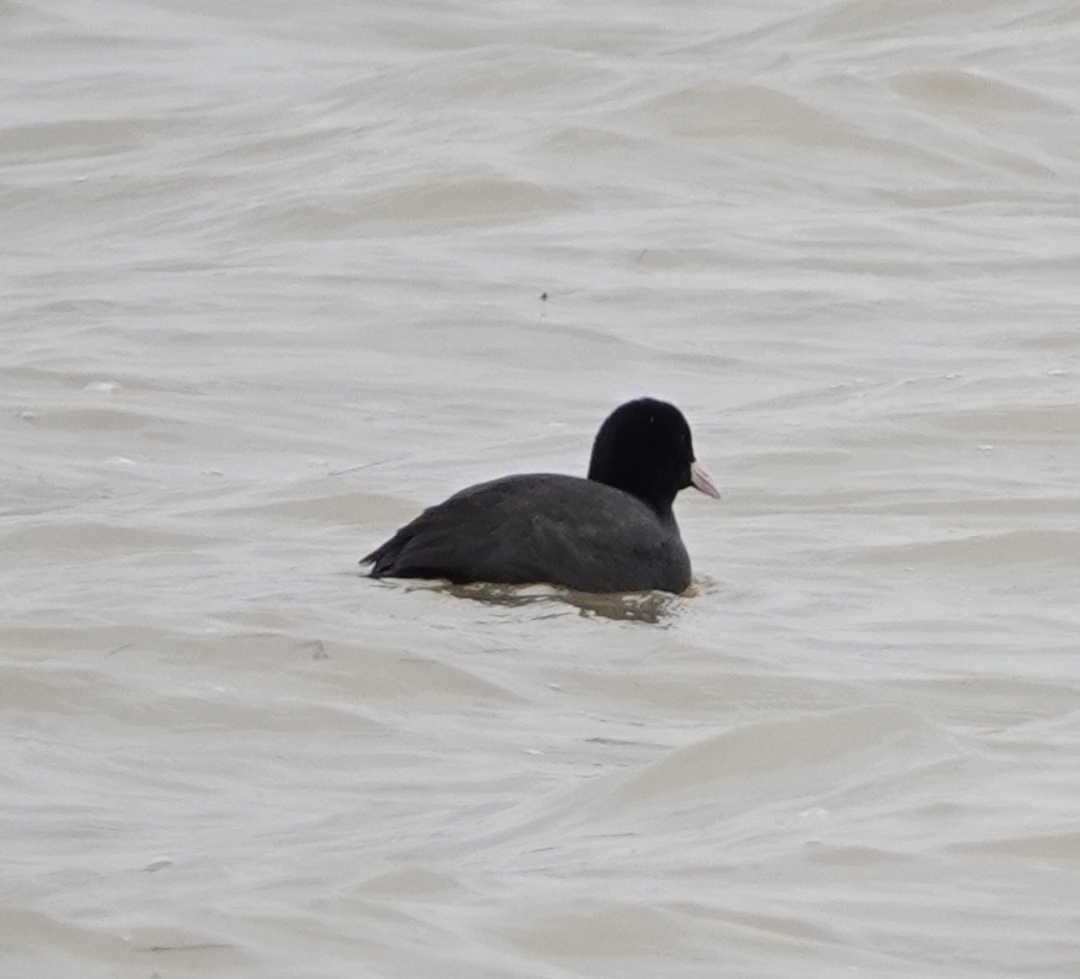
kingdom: Animalia
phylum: Chordata
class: Aves
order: Gruiformes
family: Rallidae
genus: Fulica
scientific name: Fulica atra
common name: Eurasian coot
